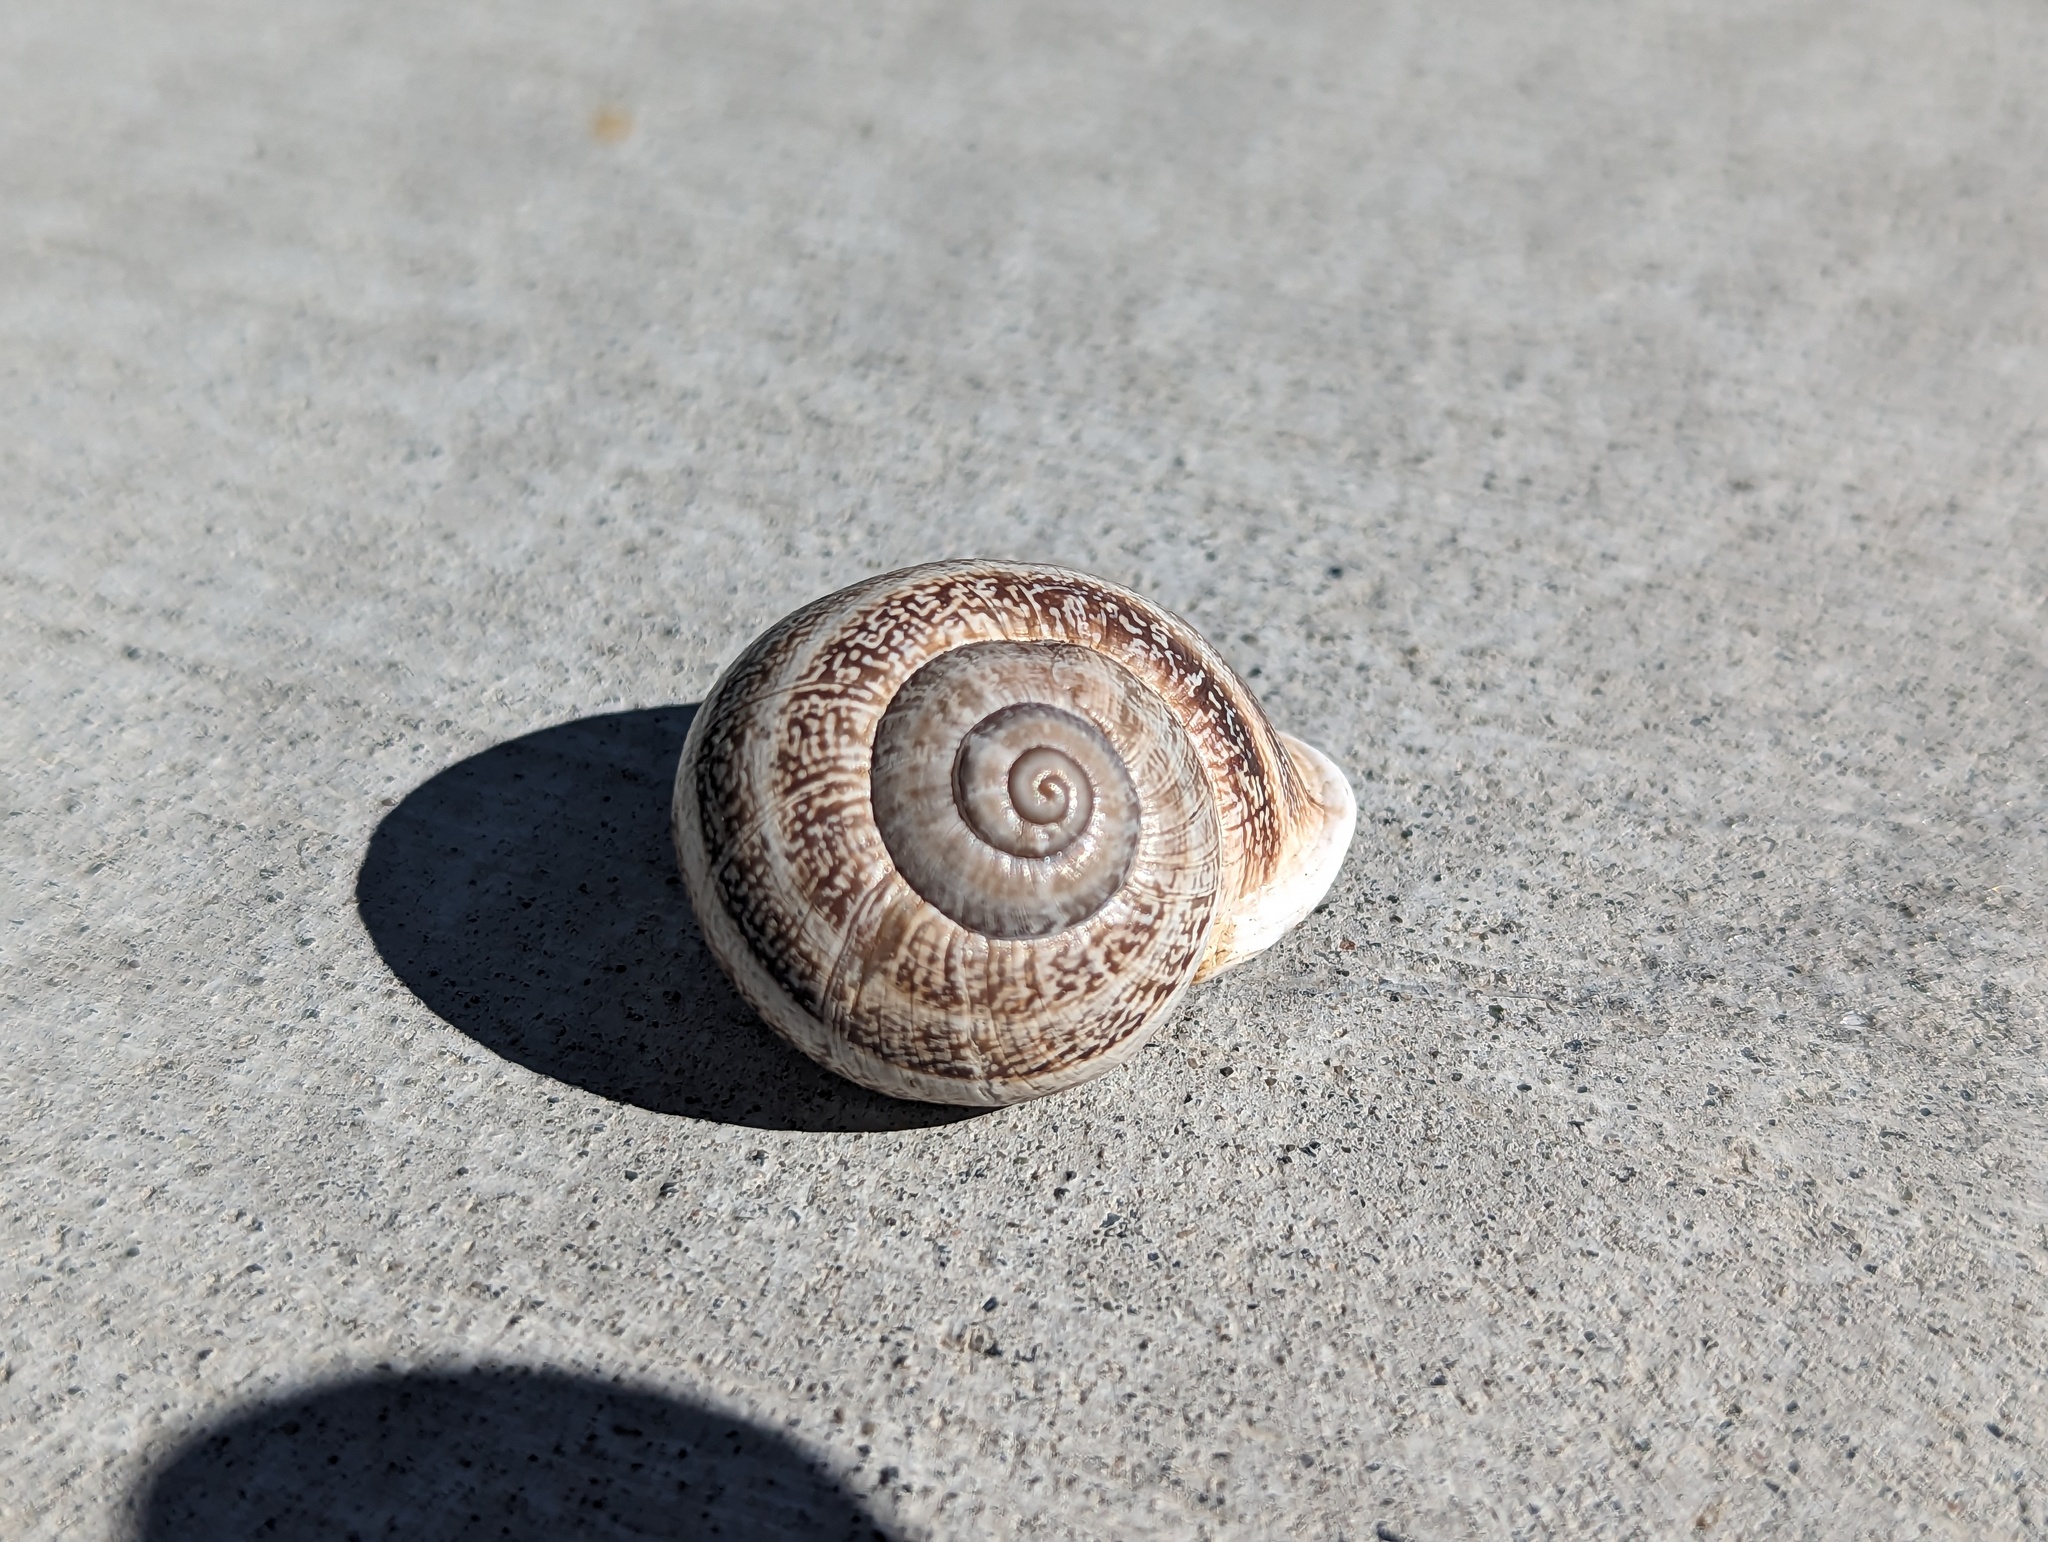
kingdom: Animalia
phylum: Mollusca
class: Gastropoda
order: Stylommatophora
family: Helicidae
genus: Otala
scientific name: Otala lactea
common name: Milk snail
